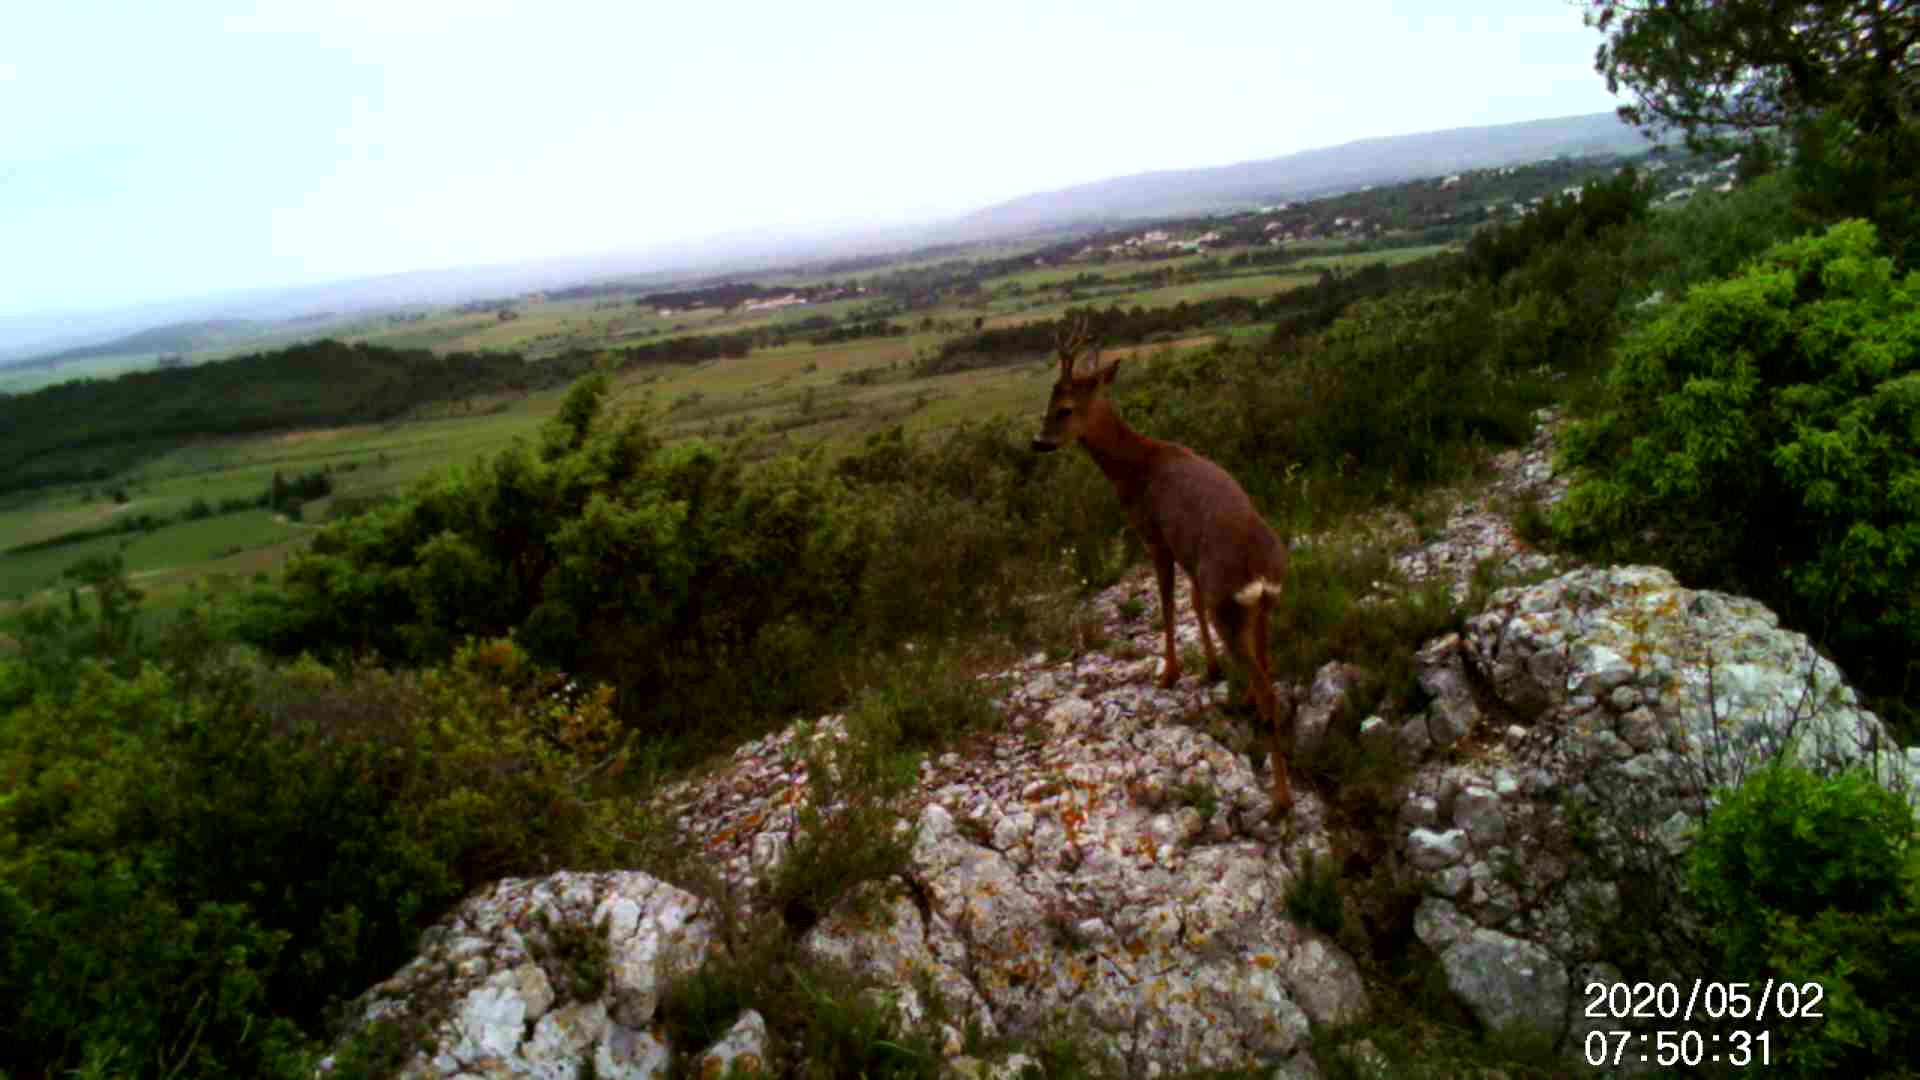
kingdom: Animalia
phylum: Chordata
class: Mammalia
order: Artiodactyla
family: Cervidae
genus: Capreolus
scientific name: Capreolus capreolus
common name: Western roe deer
